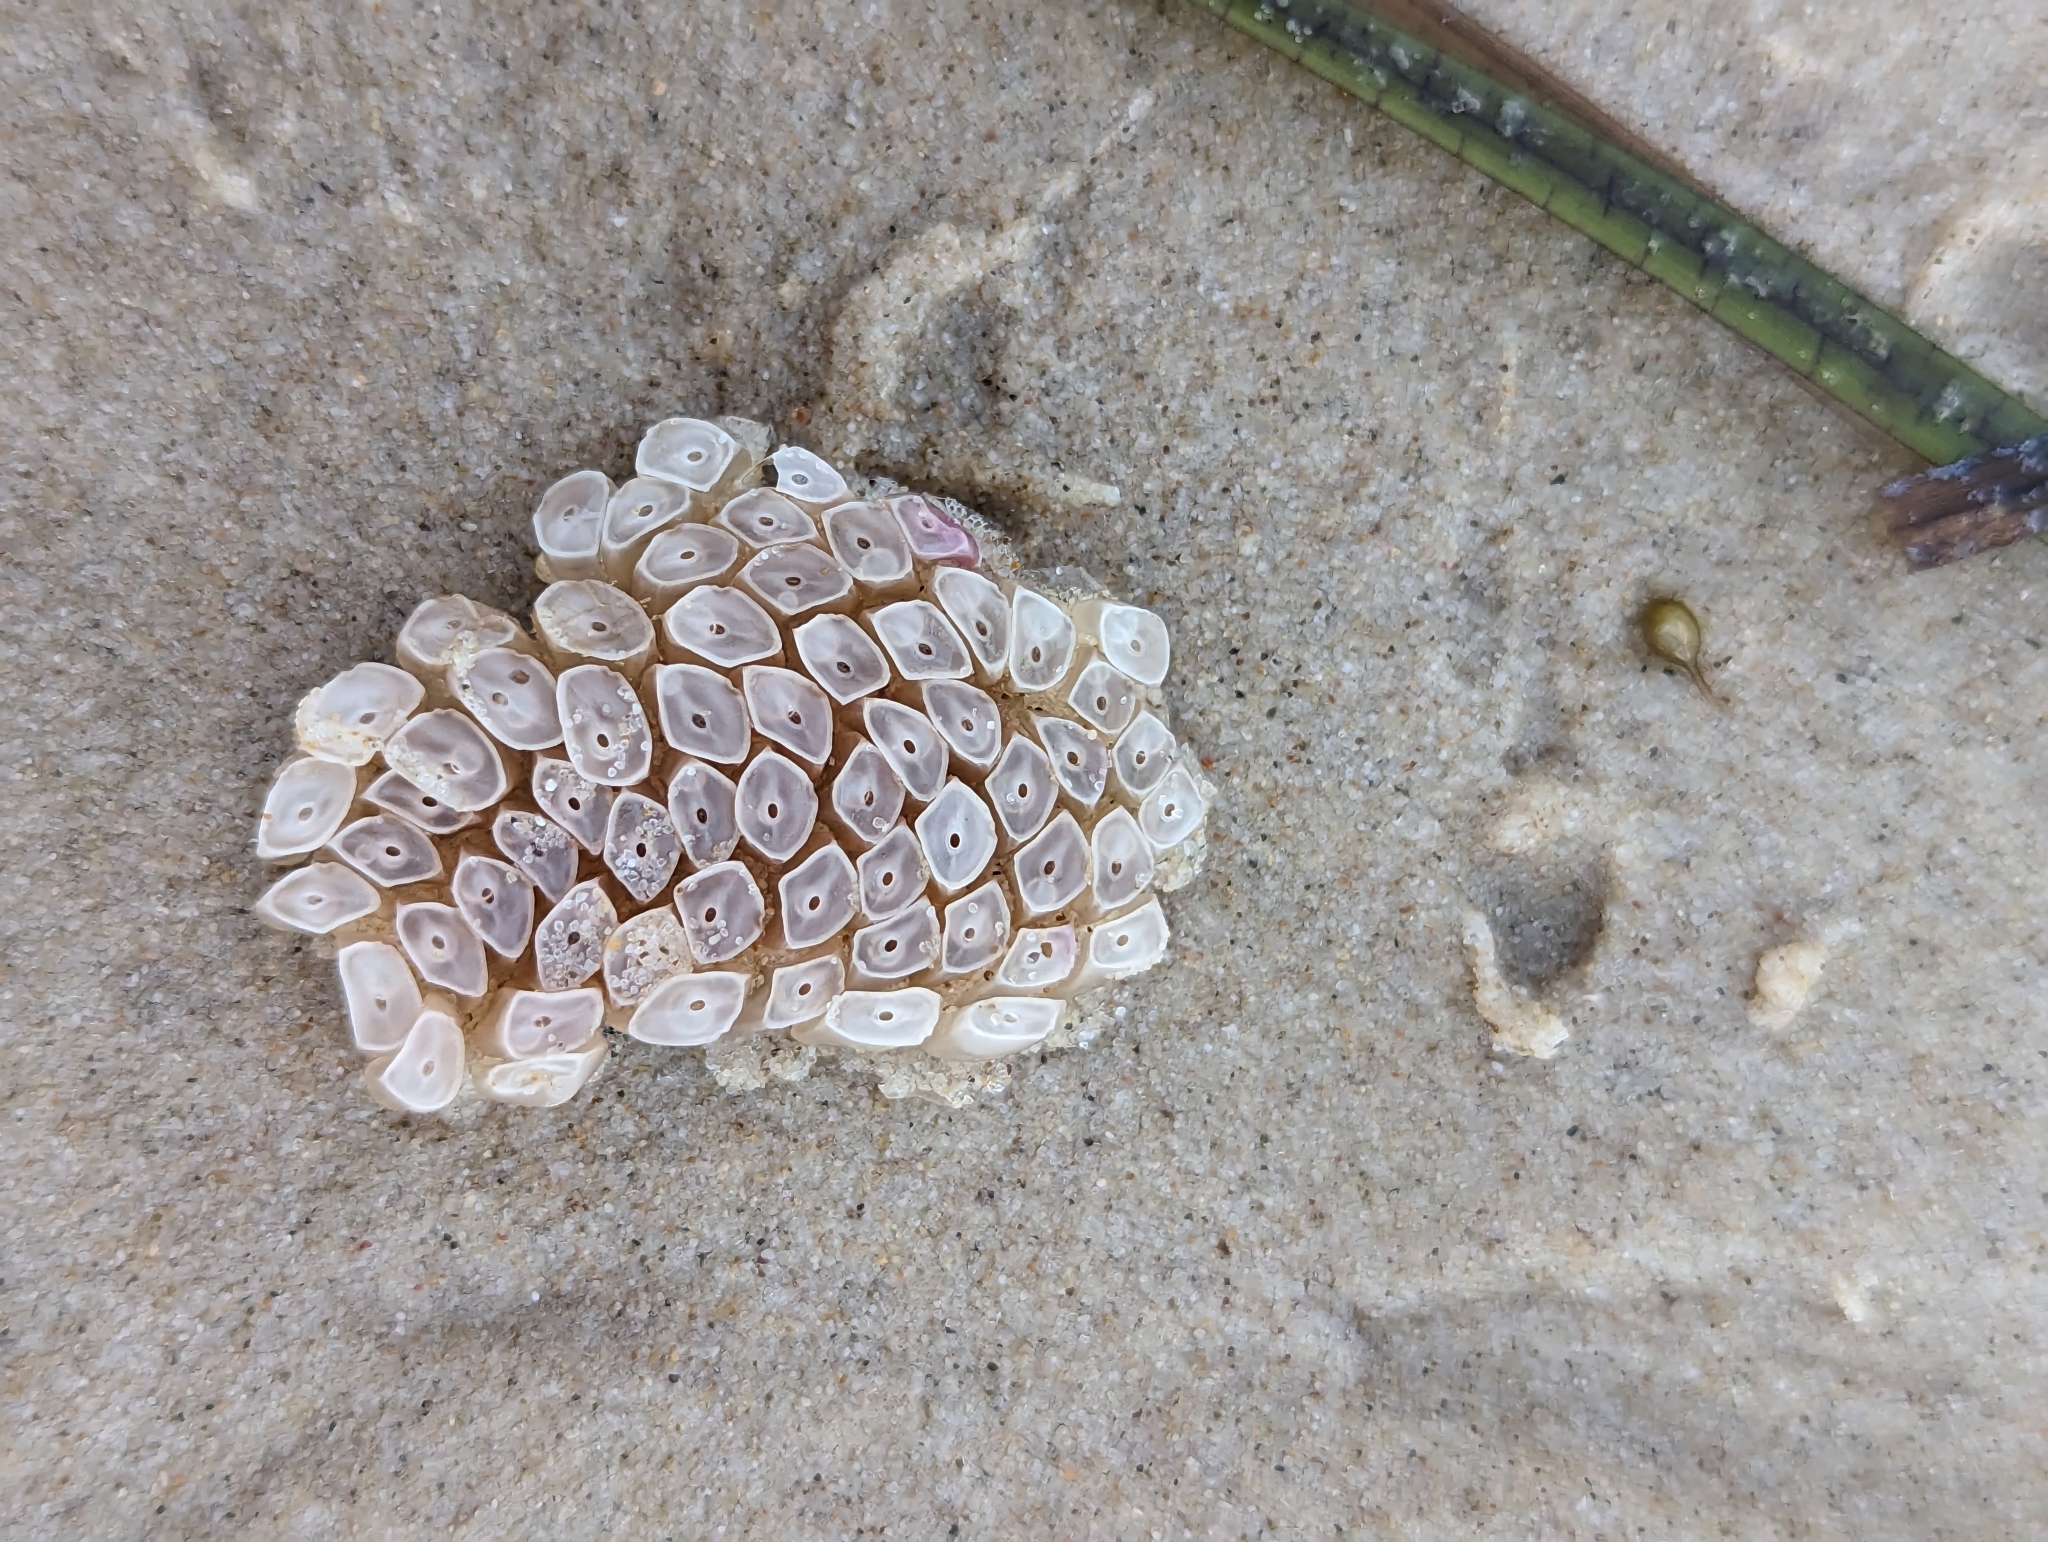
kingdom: Animalia
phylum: Mollusca
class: Gastropoda
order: Neogastropoda
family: Muricidae
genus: Dicathais
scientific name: Dicathais orbita
